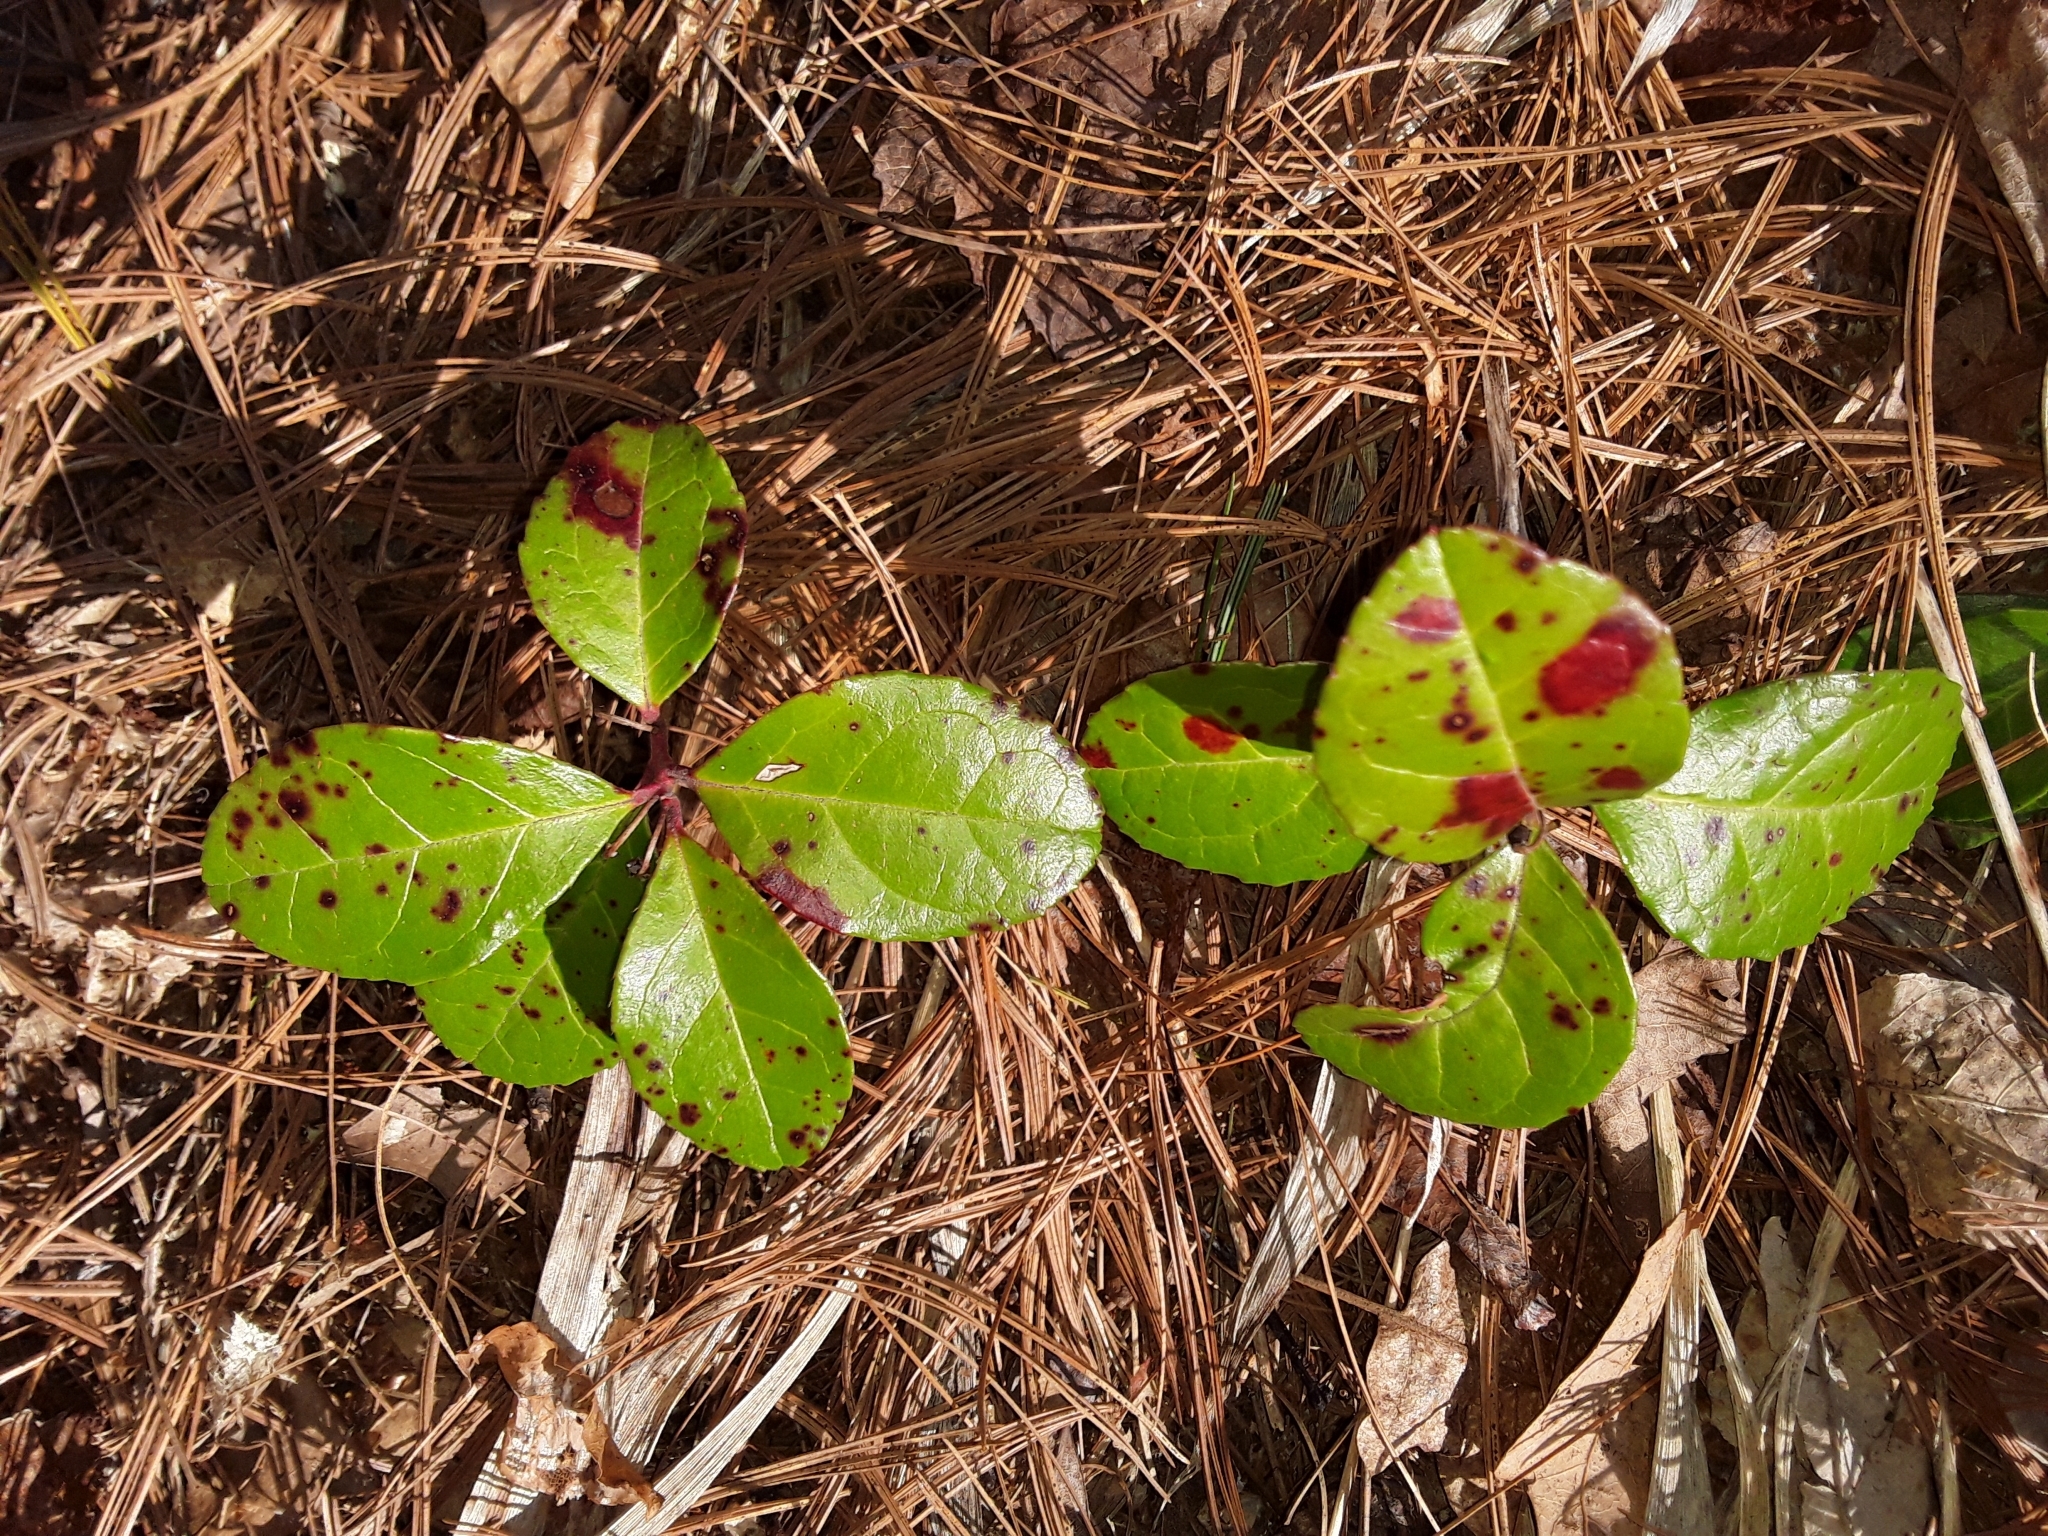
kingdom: Plantae
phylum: Tracheophyta
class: Magnoliopsida
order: Ericales
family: Ericaceae
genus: Gaultheria
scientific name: Gaultheria procumbens
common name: Checkerberry
